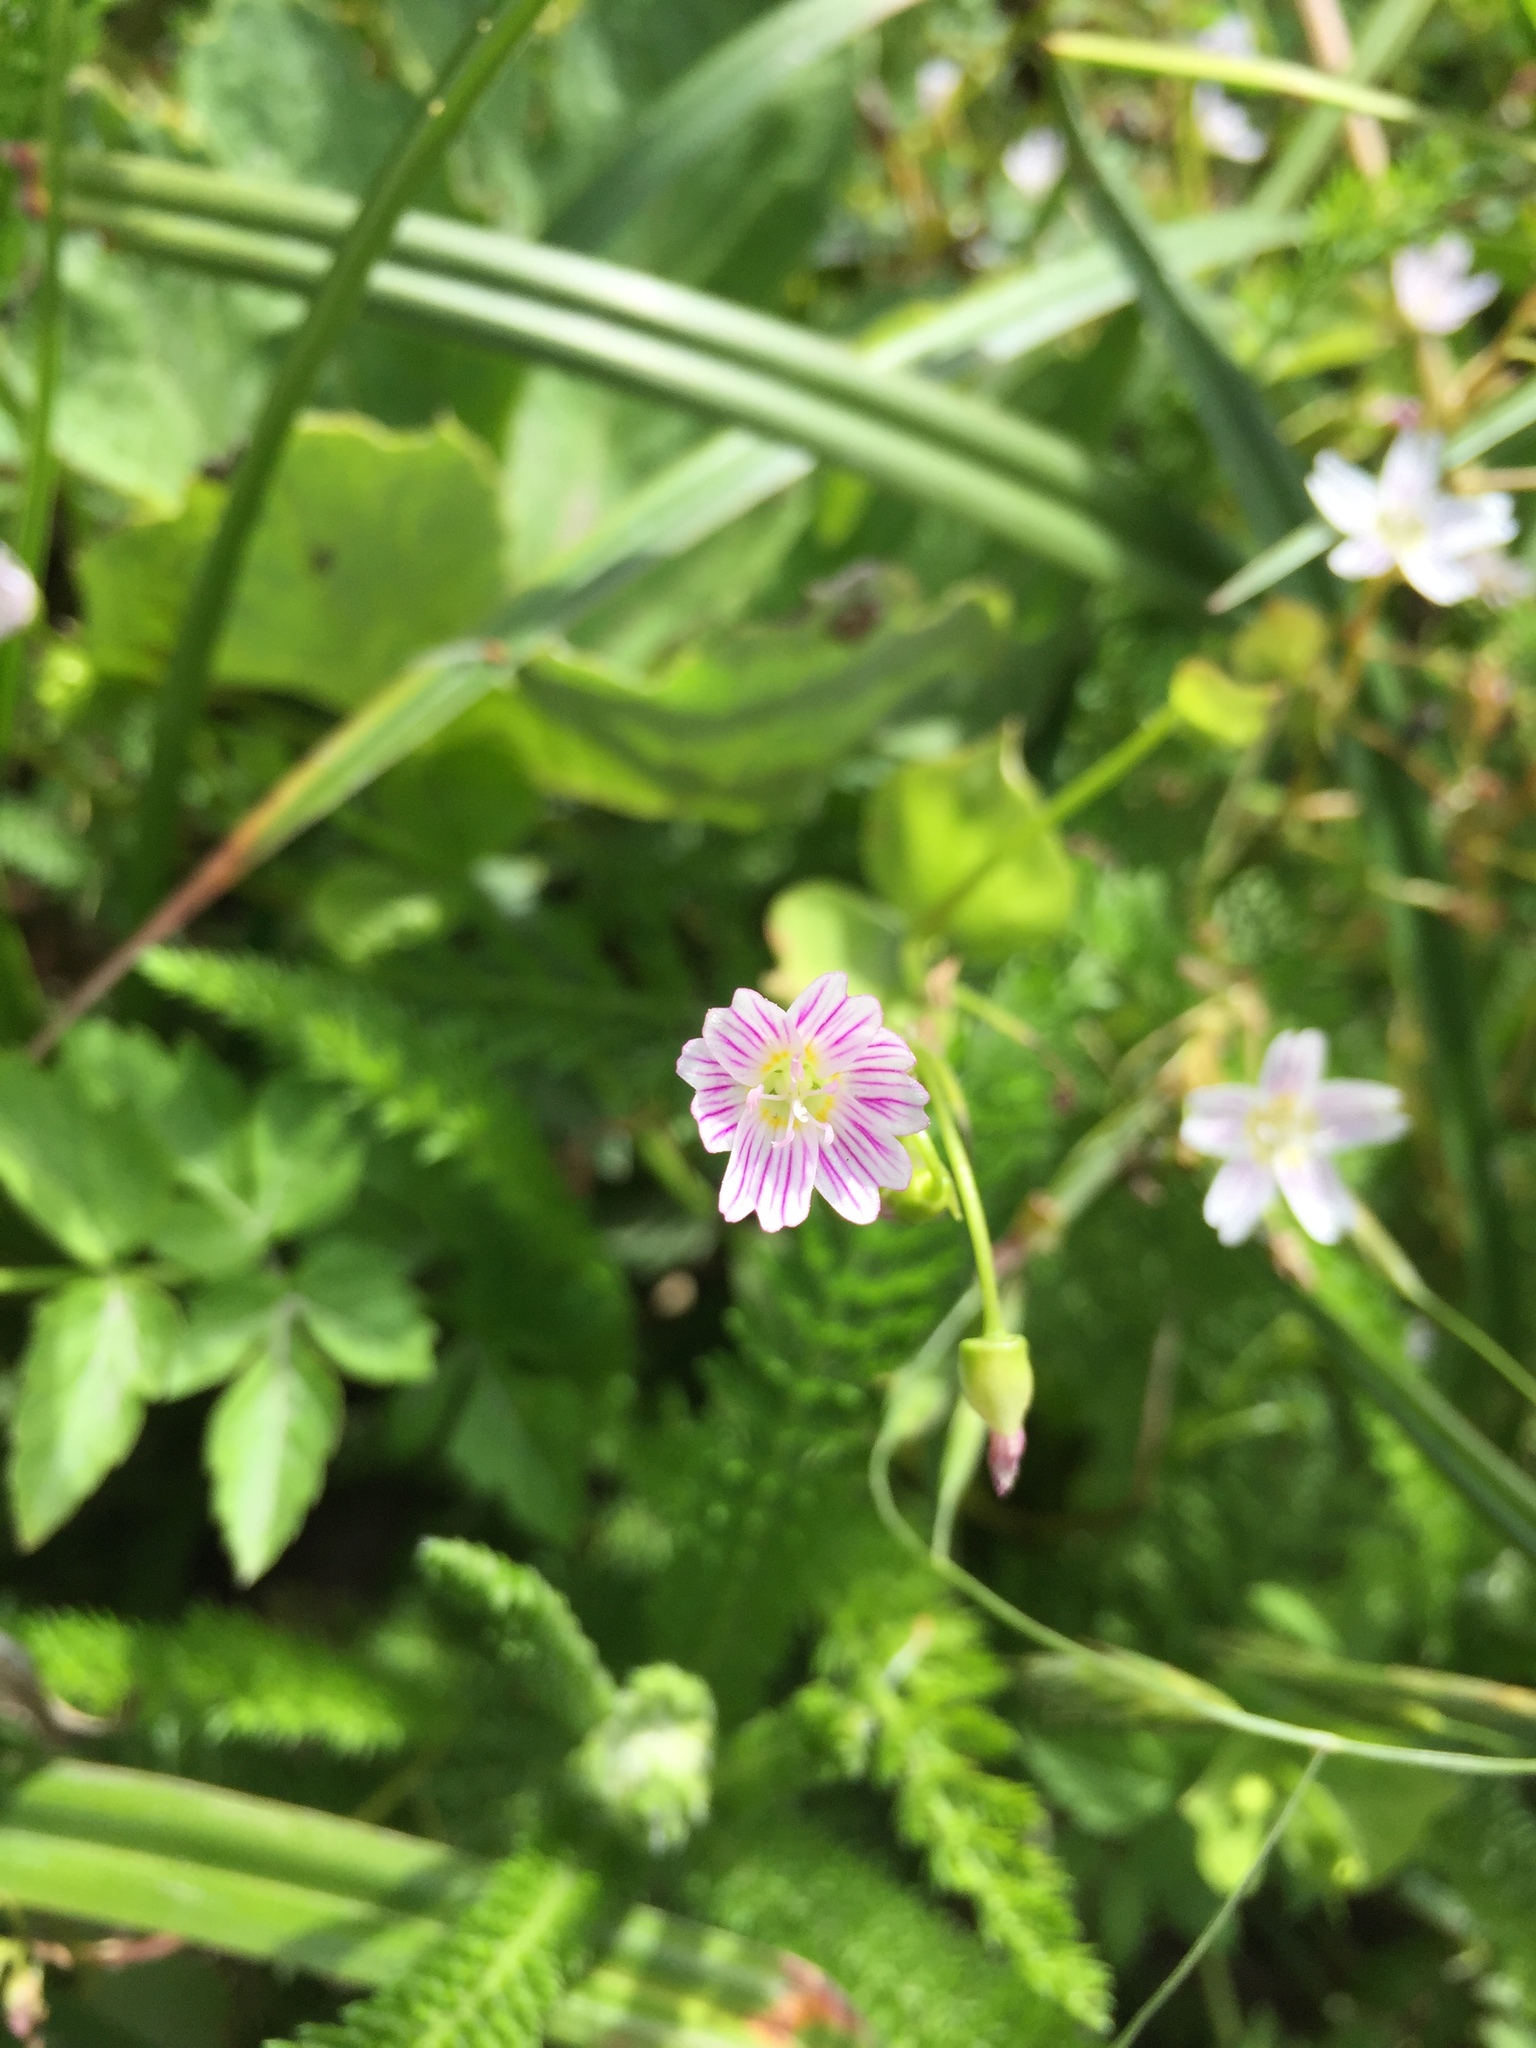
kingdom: Plantae
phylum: Tracheophyta
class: Magnoliopsida
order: Caryophyllales
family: Montiaceae
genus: Claytonia
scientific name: Claytonia sibirica
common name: Pink purslane
